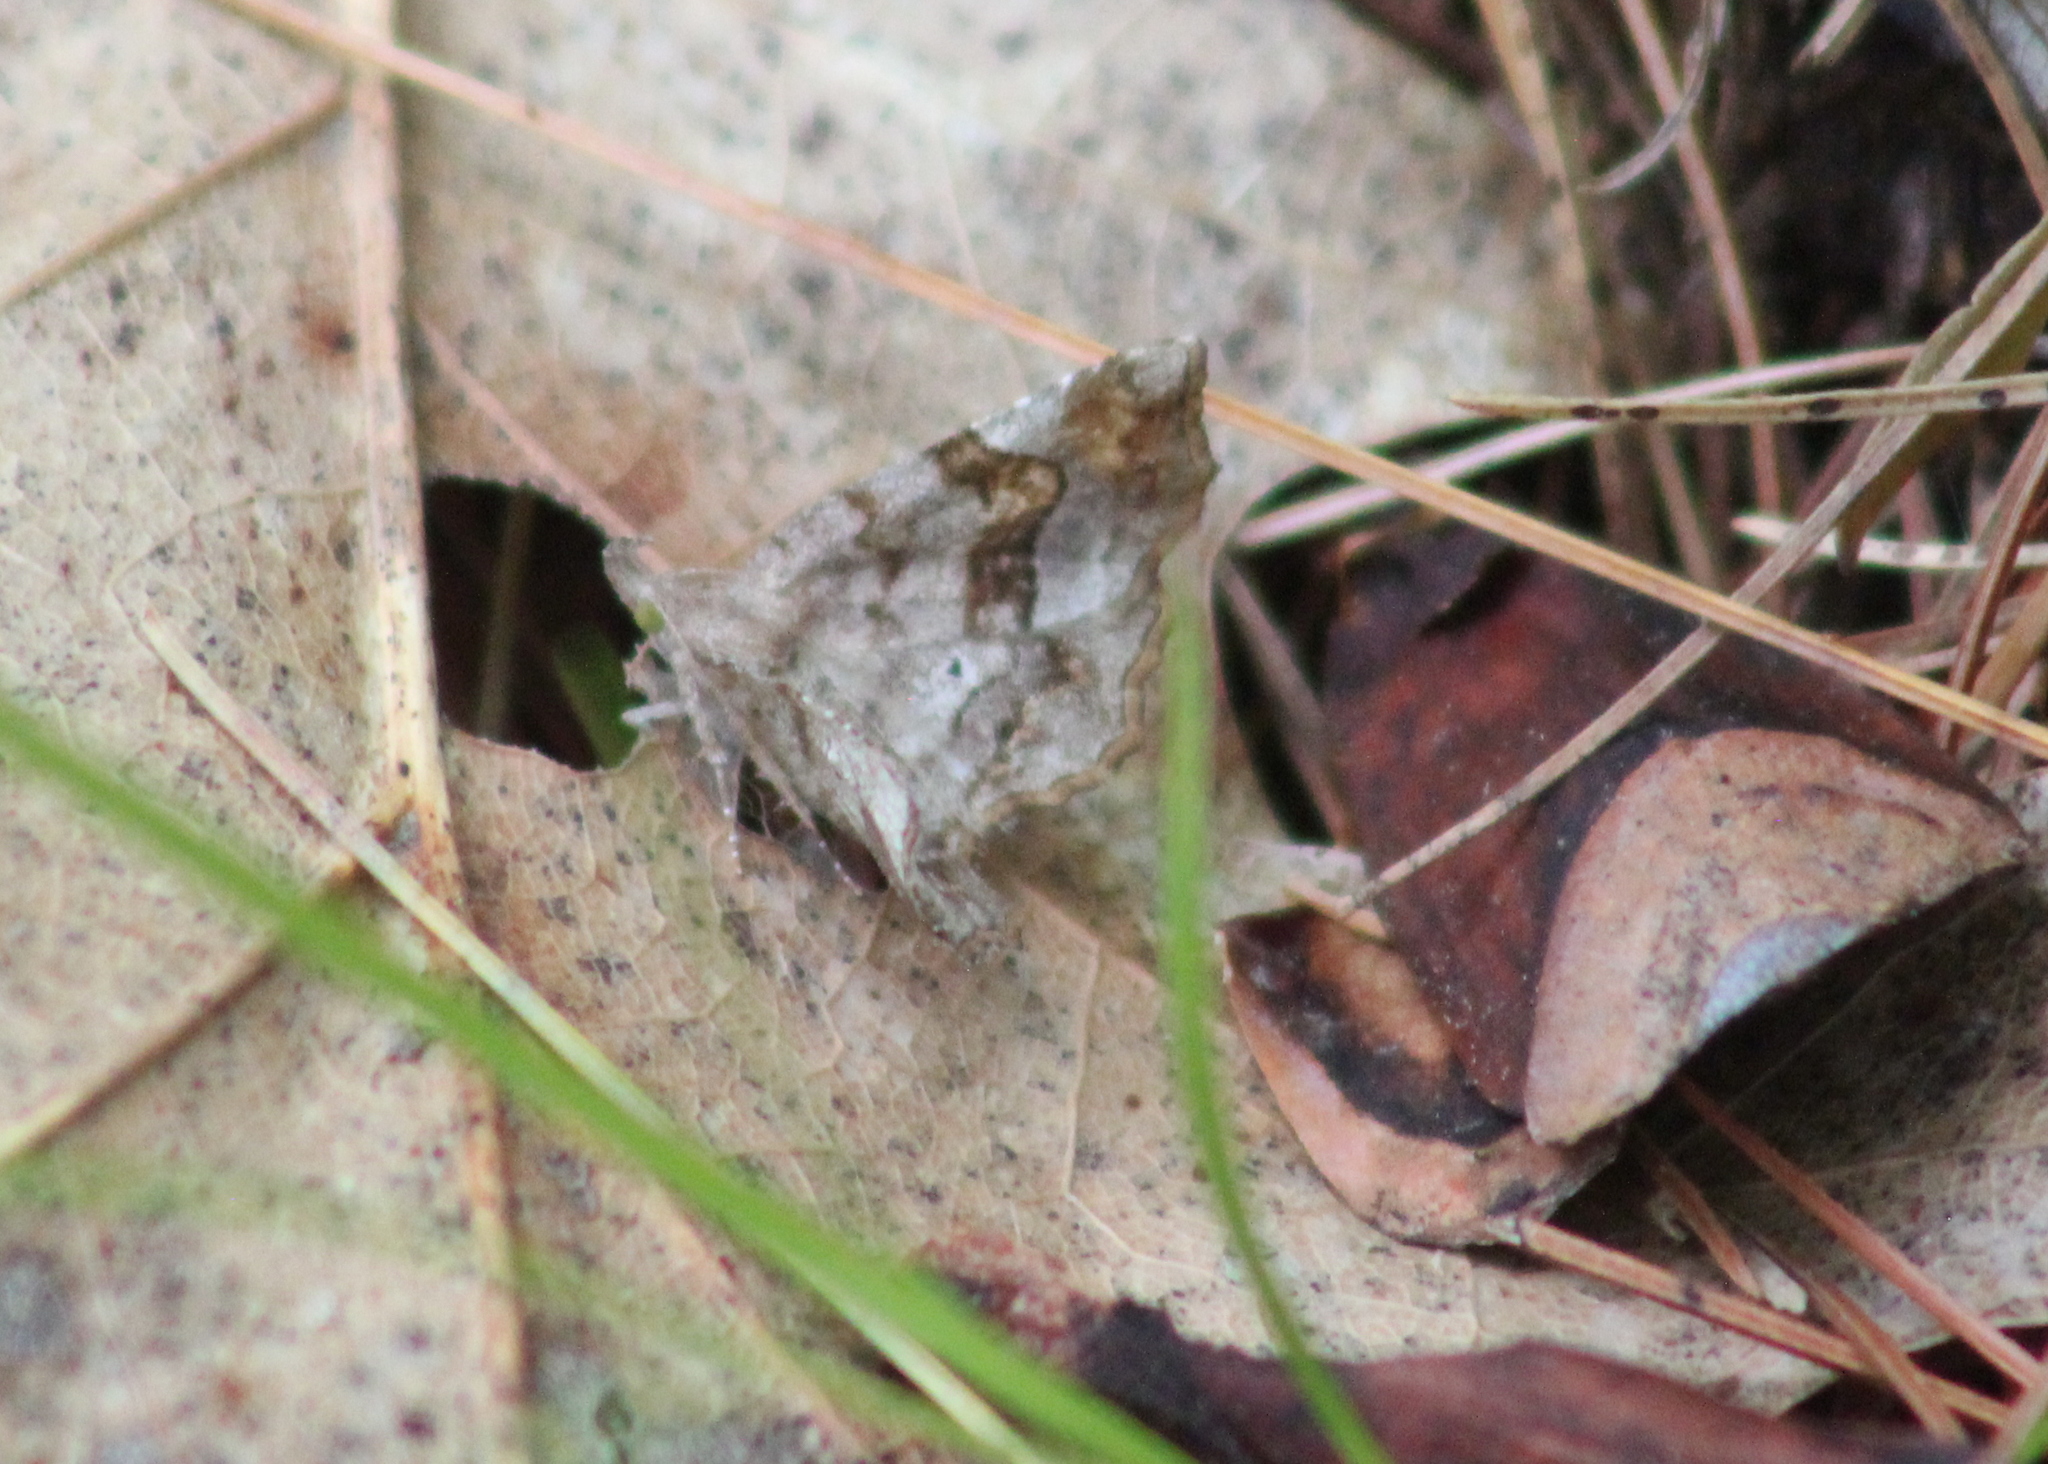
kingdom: Animalia
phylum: Arthropoda
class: Insecta
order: Lepidoptera
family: Erebidae
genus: Pangrapta
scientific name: Pangrapta decoralis
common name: Decorated owlet
